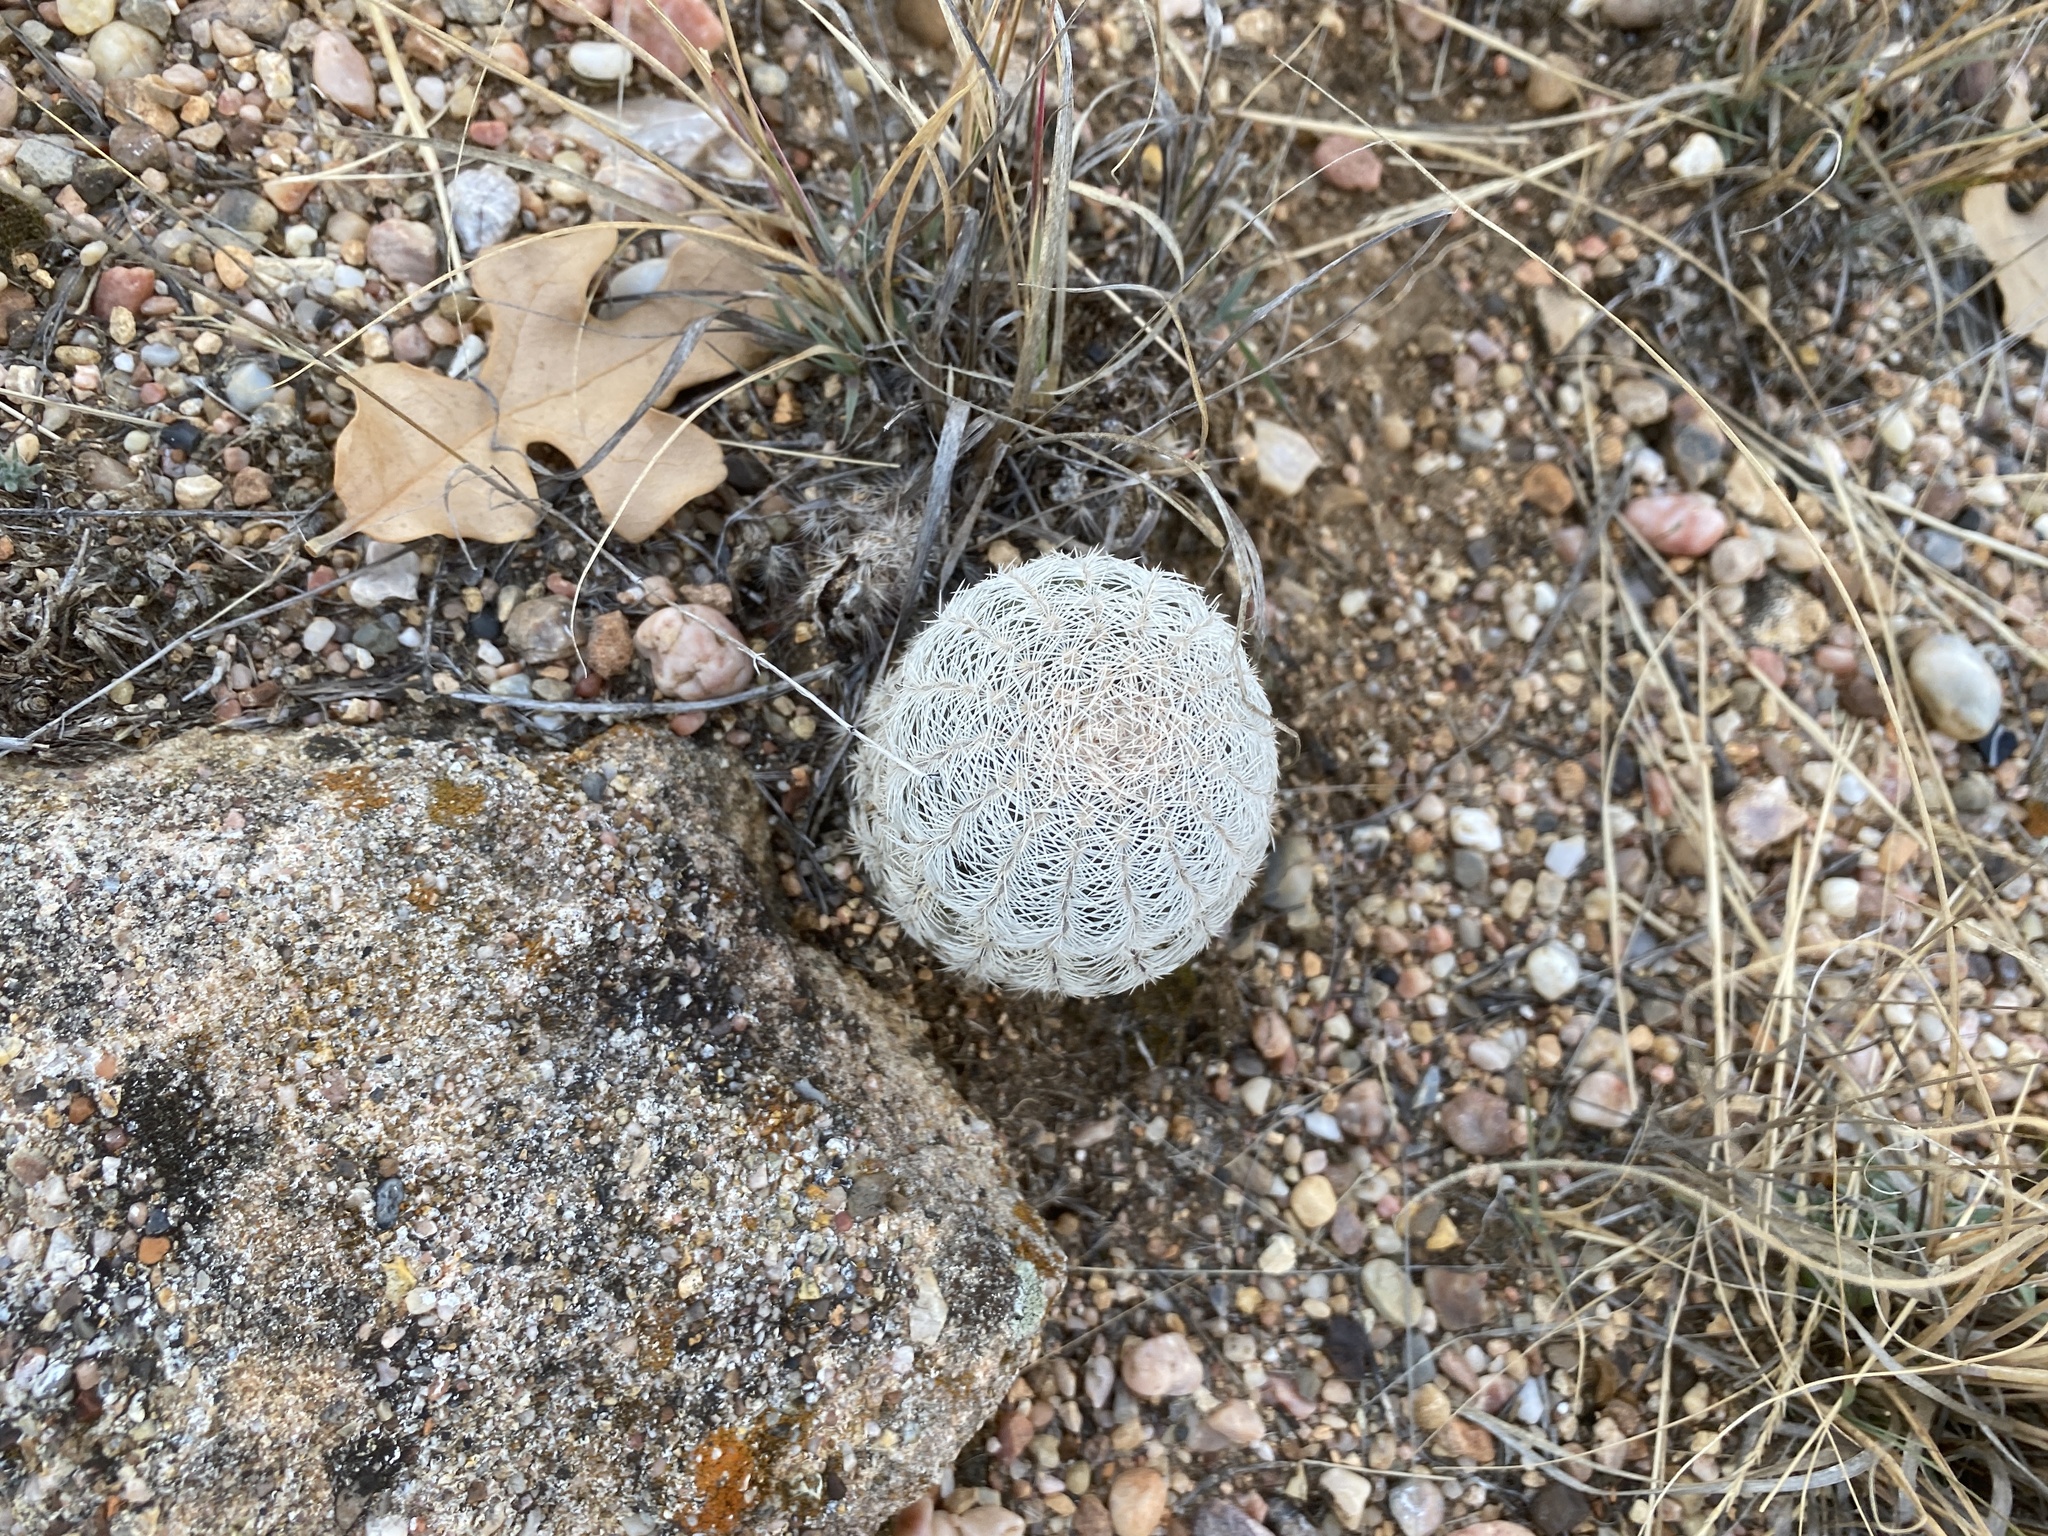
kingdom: Plantae
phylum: Tracheophyta
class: Magnoliopsida
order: Caryophyllales
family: Cactaceae
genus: Echinocereus
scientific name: Echinocereus reichenbachii
